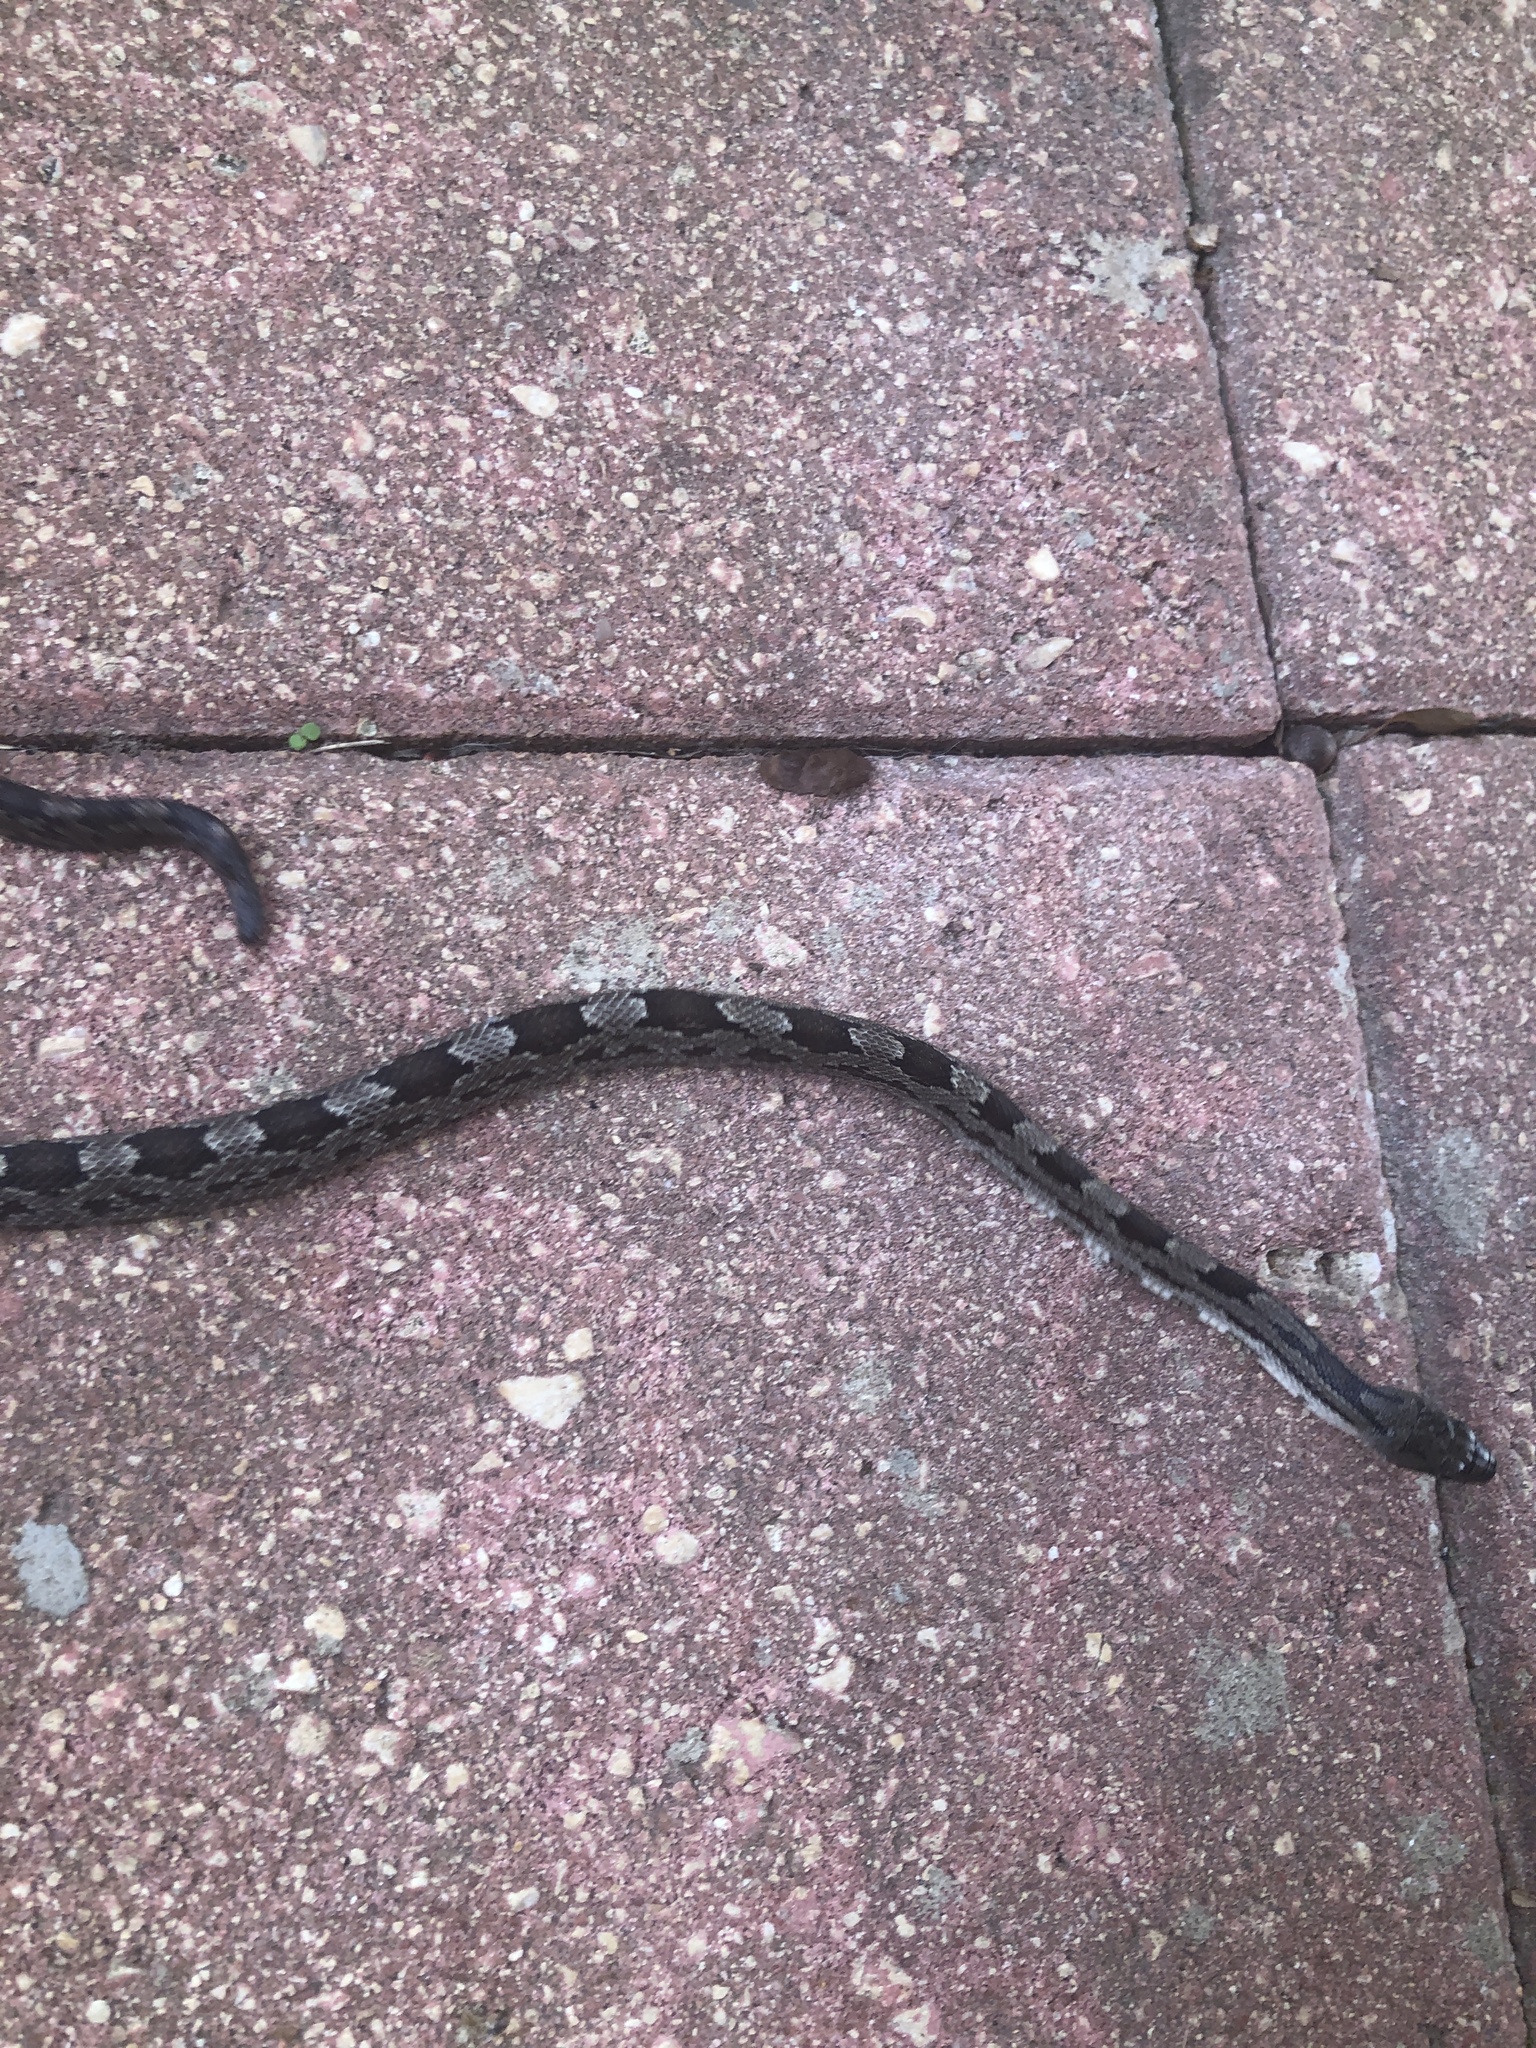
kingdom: Animalia
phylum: Chordata
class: Squamata
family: Colubridae
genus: Pantherophis
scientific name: Pantherophis spiloides
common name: Gray rat snake
